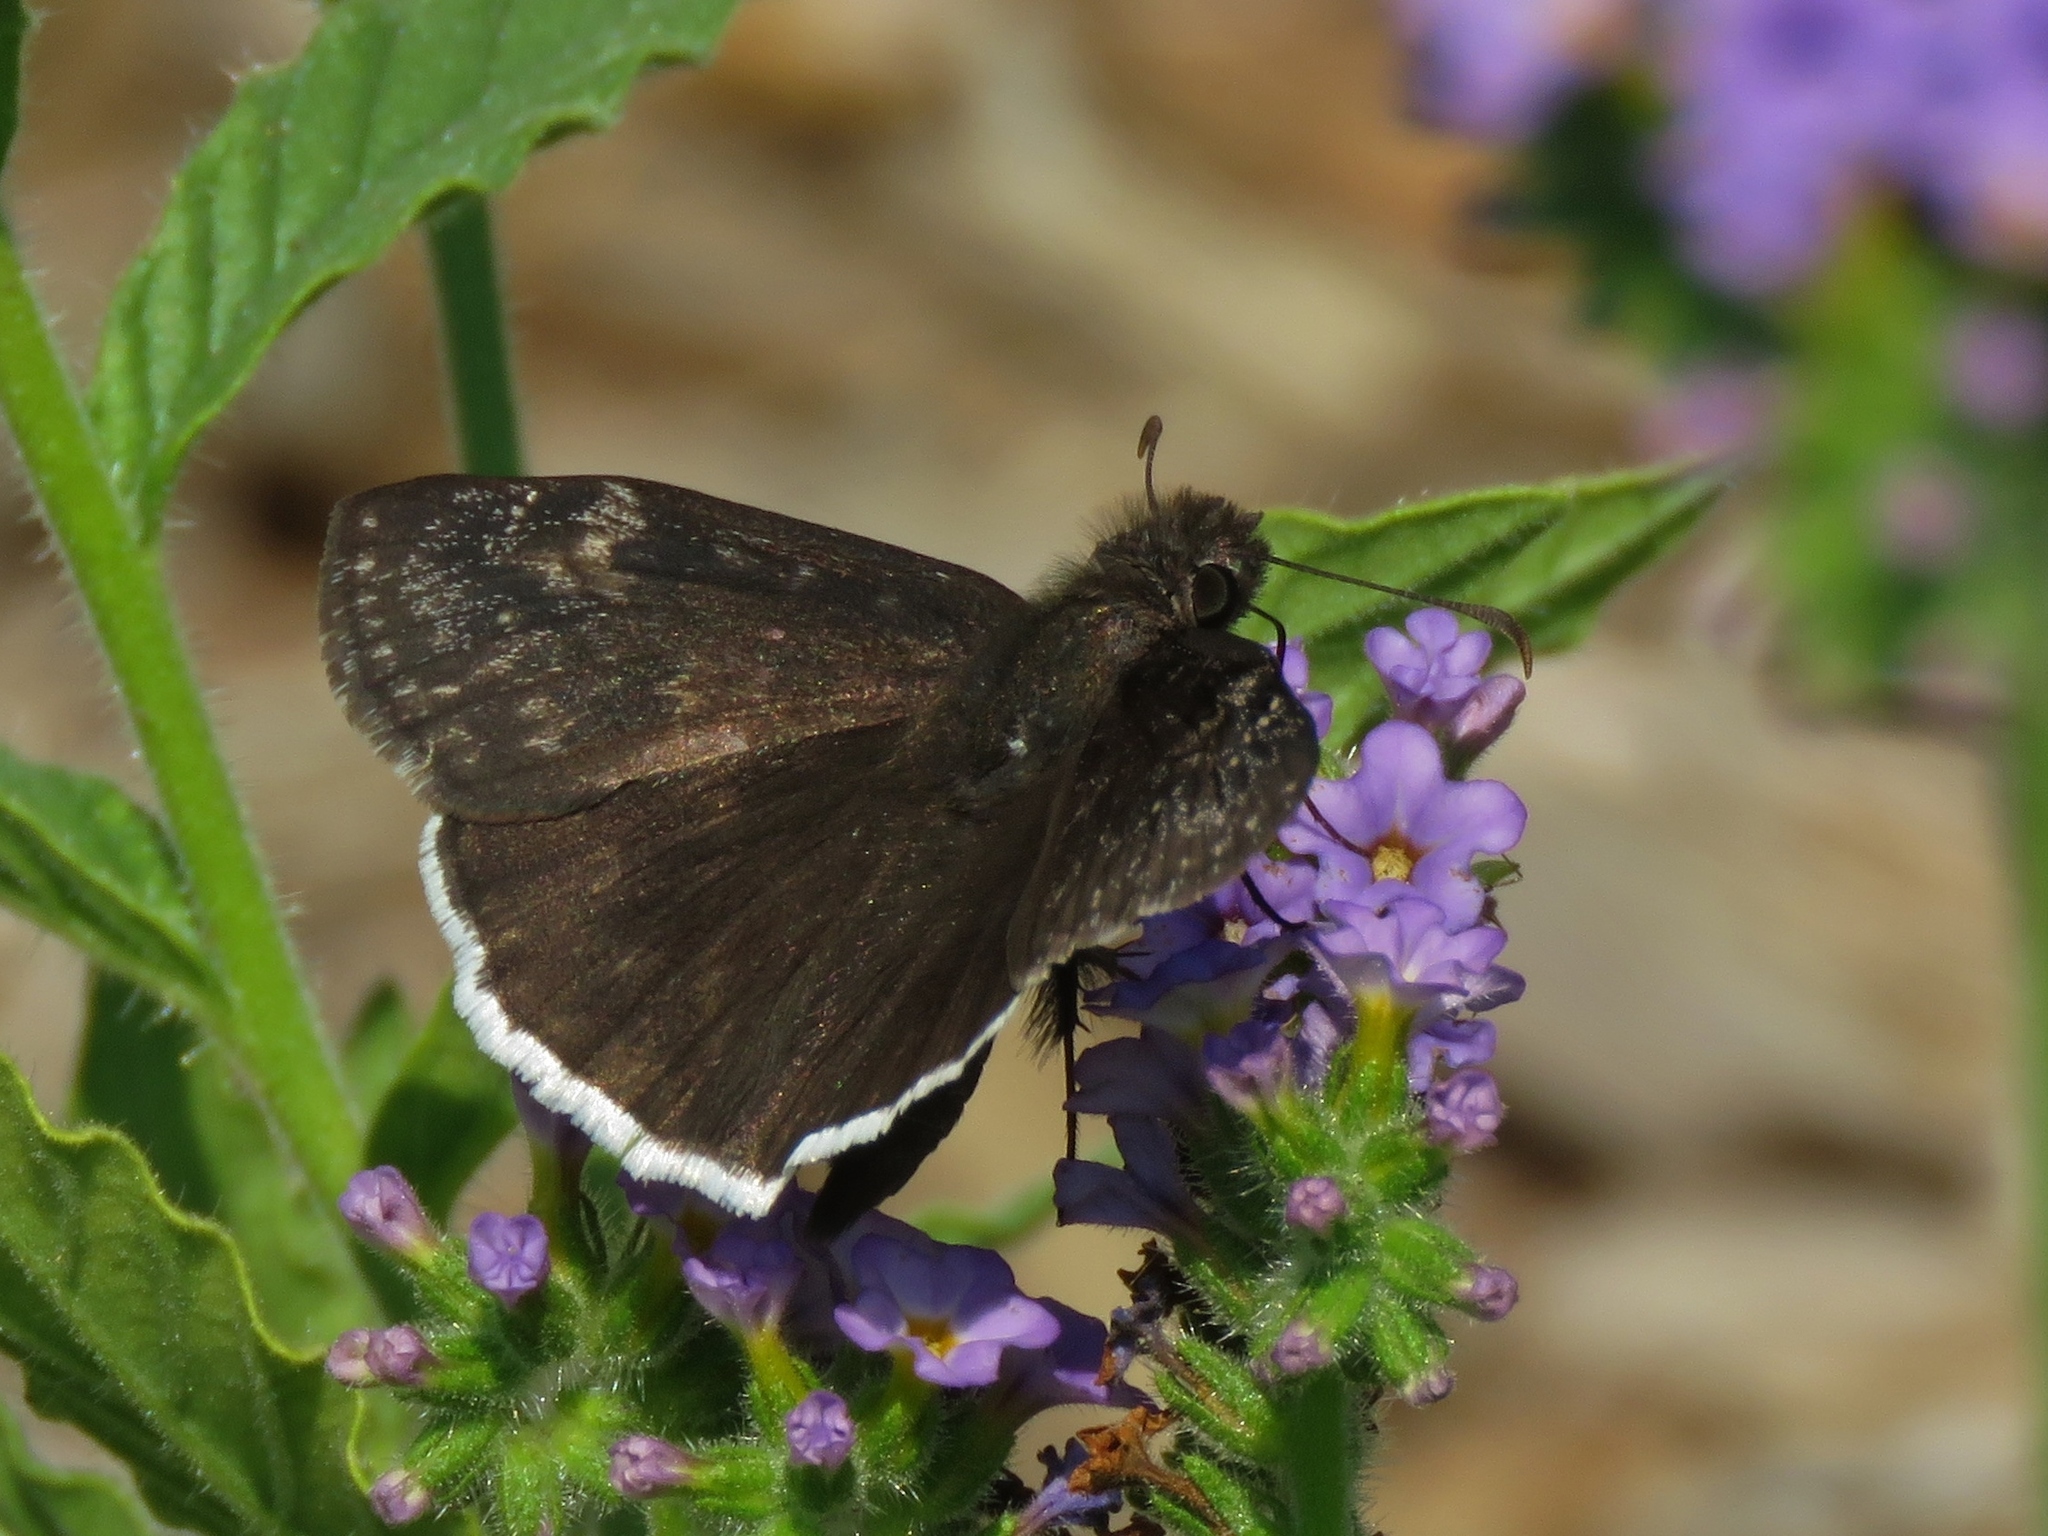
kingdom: Animalia
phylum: Arthropoda
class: Insecta
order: Lepidoptera
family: Hesperiidae
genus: Erynnis
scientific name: Erynnis funeralis
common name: Funereal duskywing
